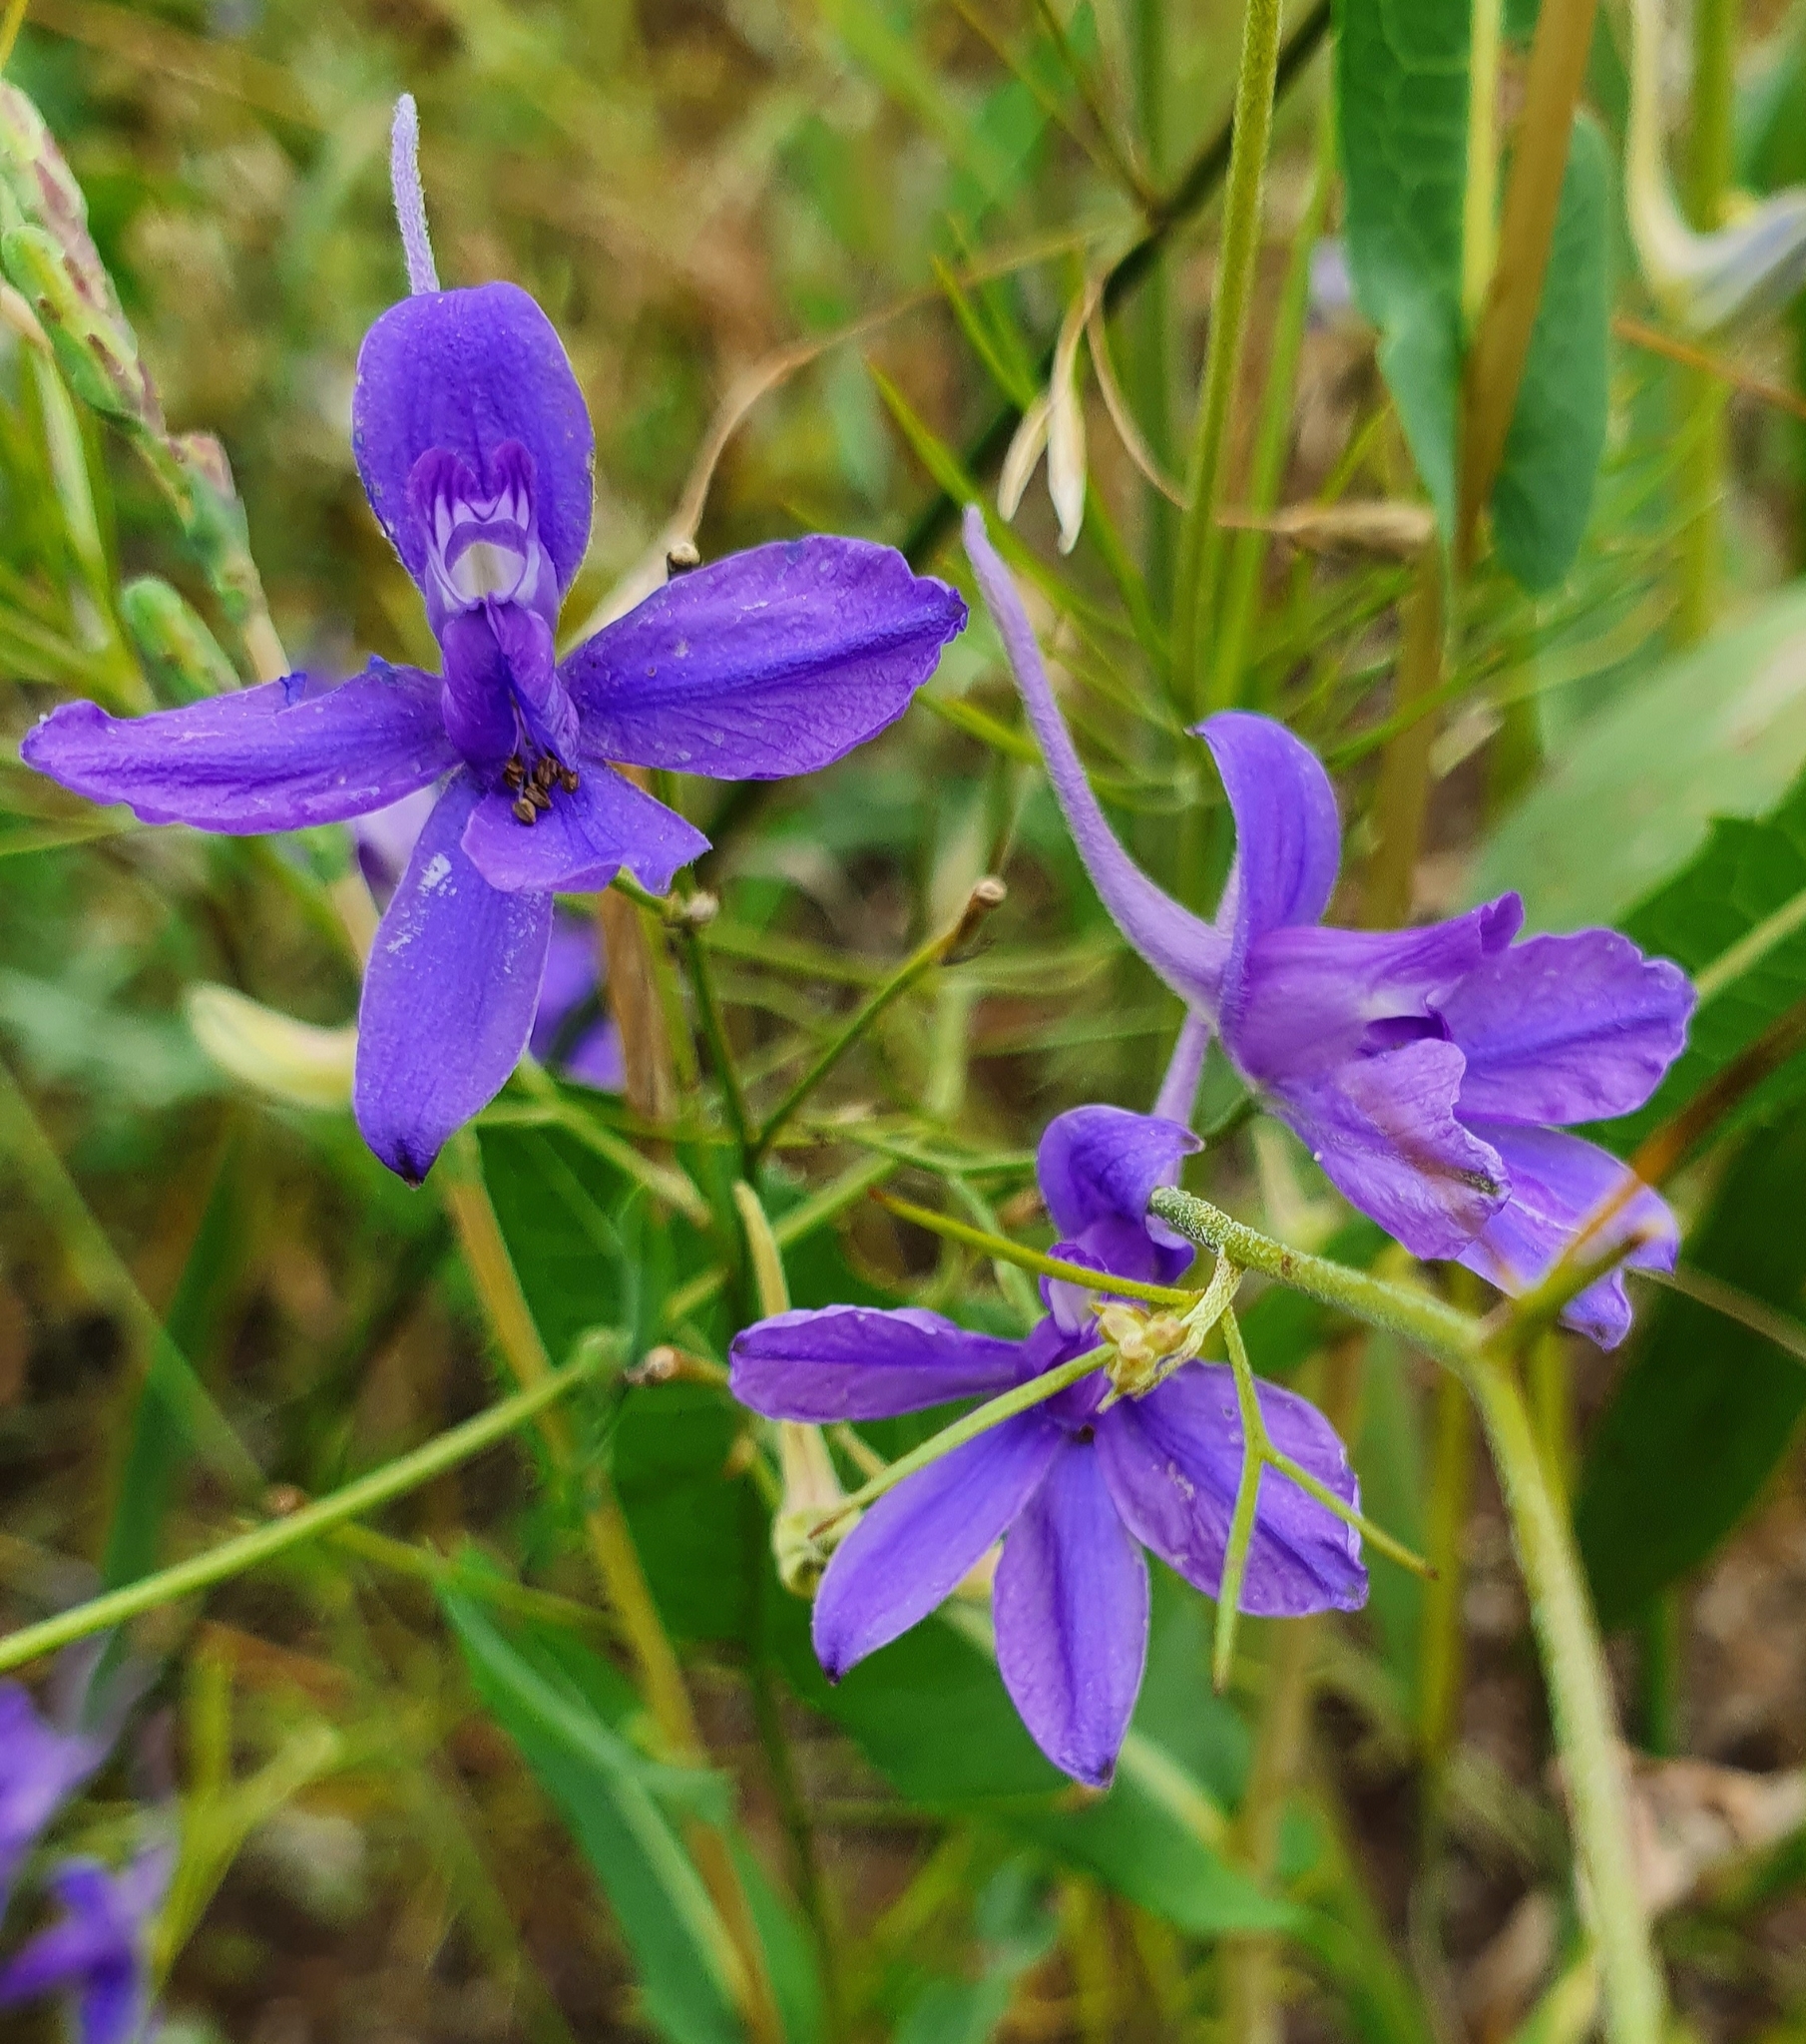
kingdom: Plantae
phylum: Tracheophyta
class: Magnoliopsida
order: Ranunculales
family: Ranunculaceae
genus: Delphinium
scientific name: Delphinium consolida
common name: Branching larkspur
